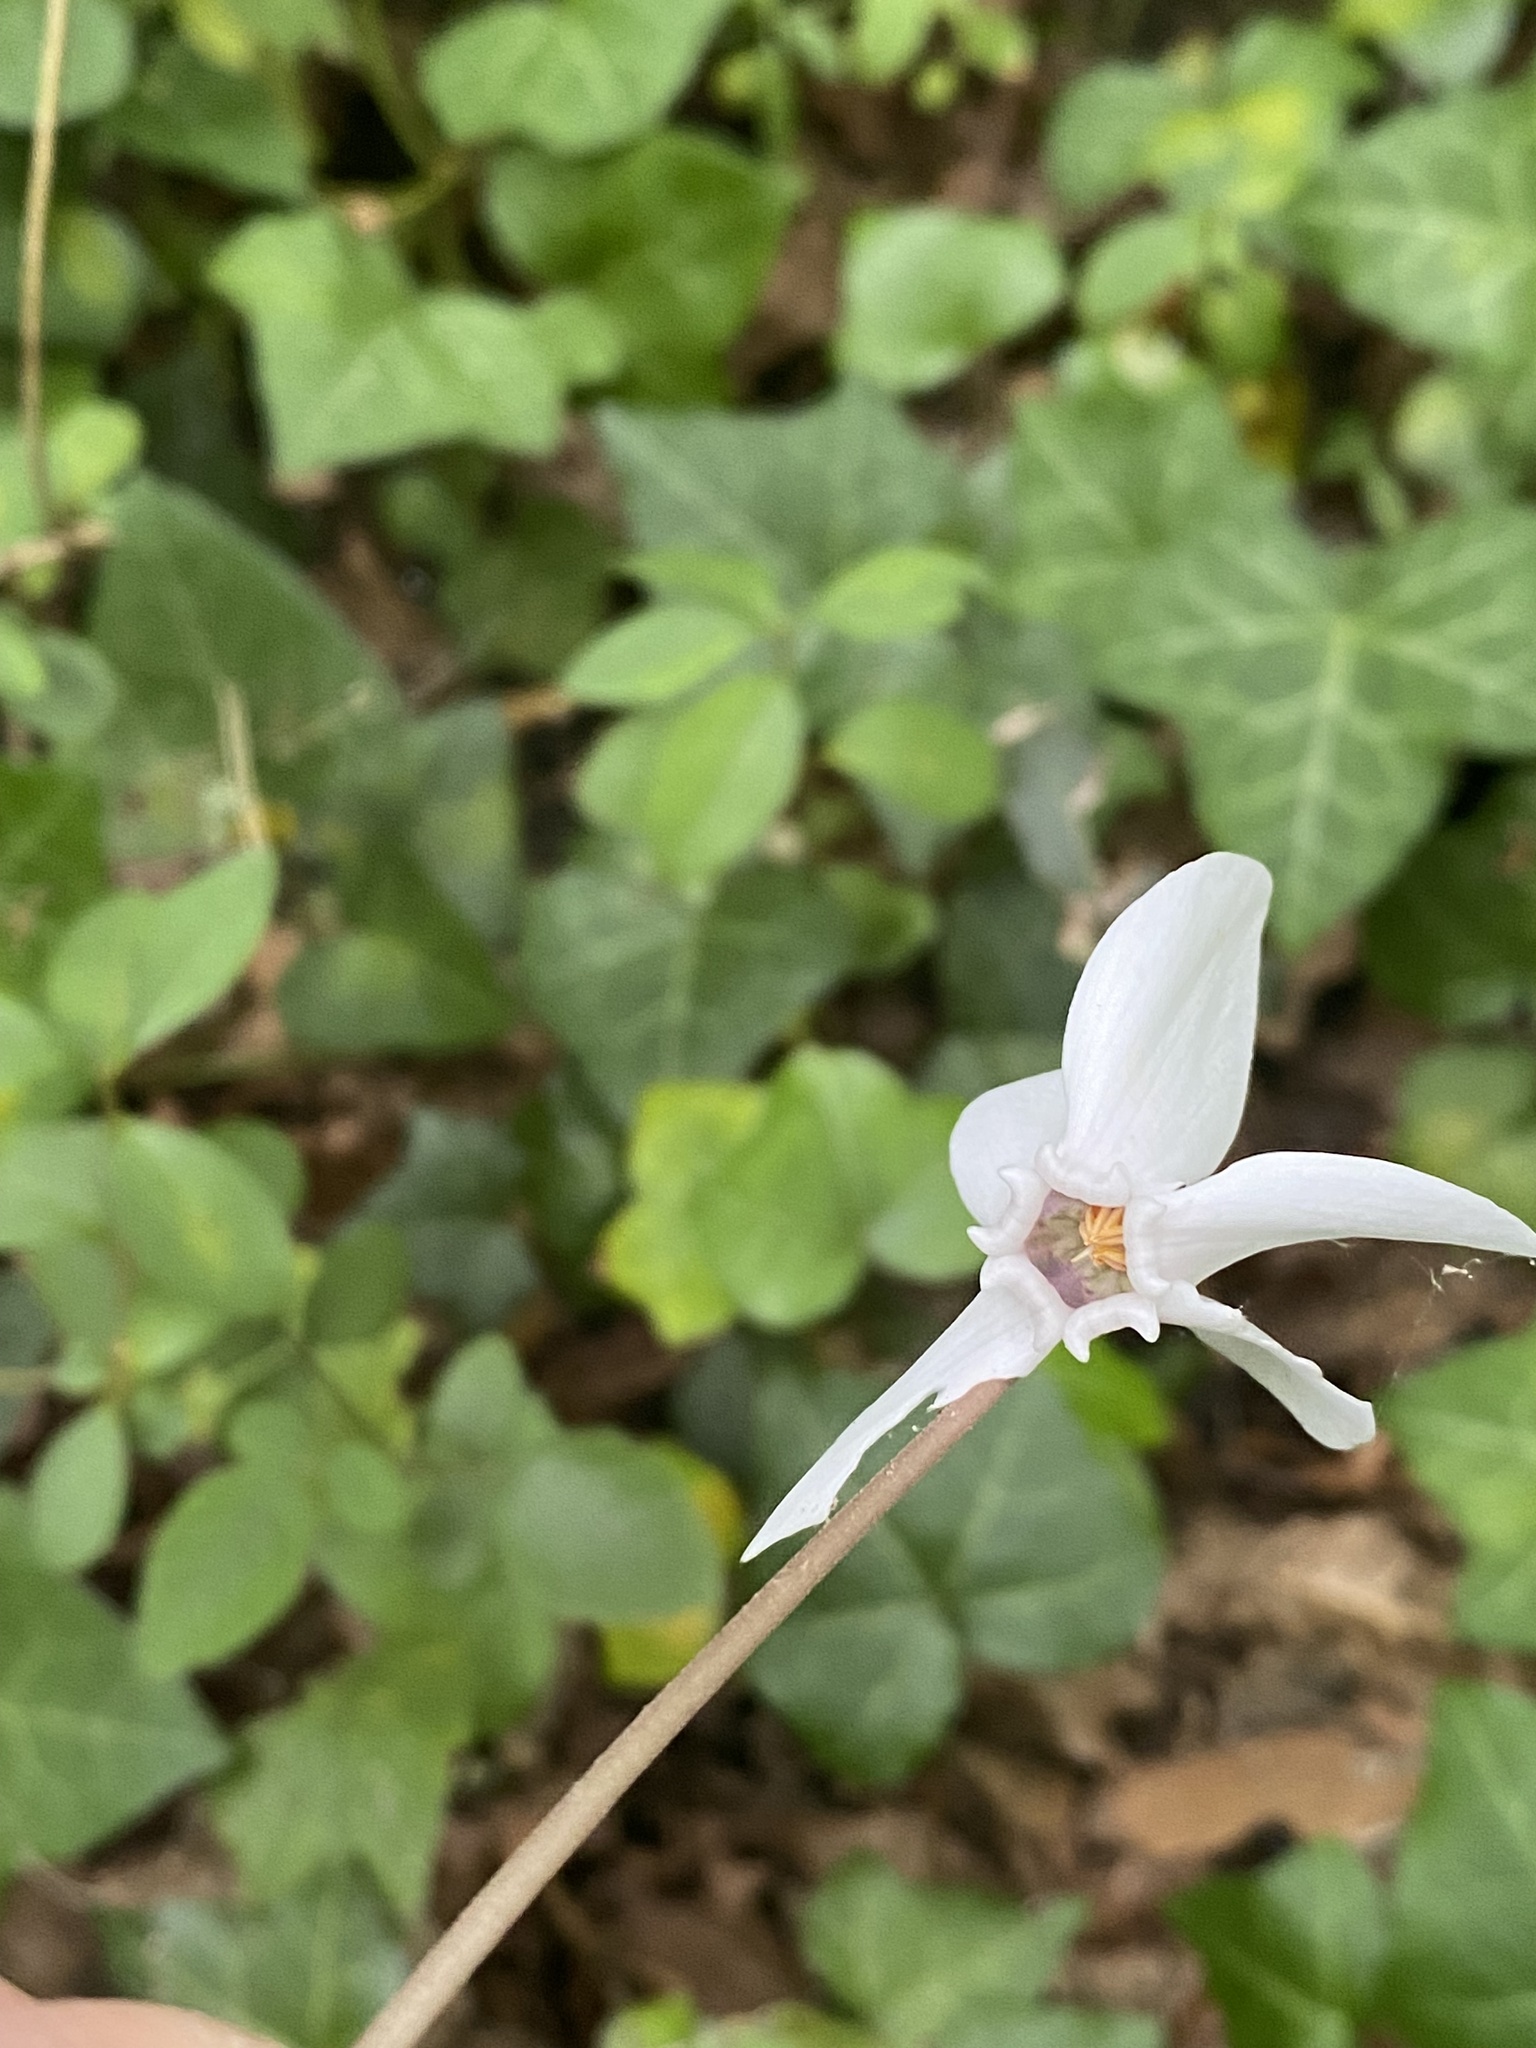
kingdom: Plantae
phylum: Tracheophyta
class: Magnoliopsida
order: Ericales
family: Primulaceae
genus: Cyclamen
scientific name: Cyclamen hederifolium
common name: Sowbread
